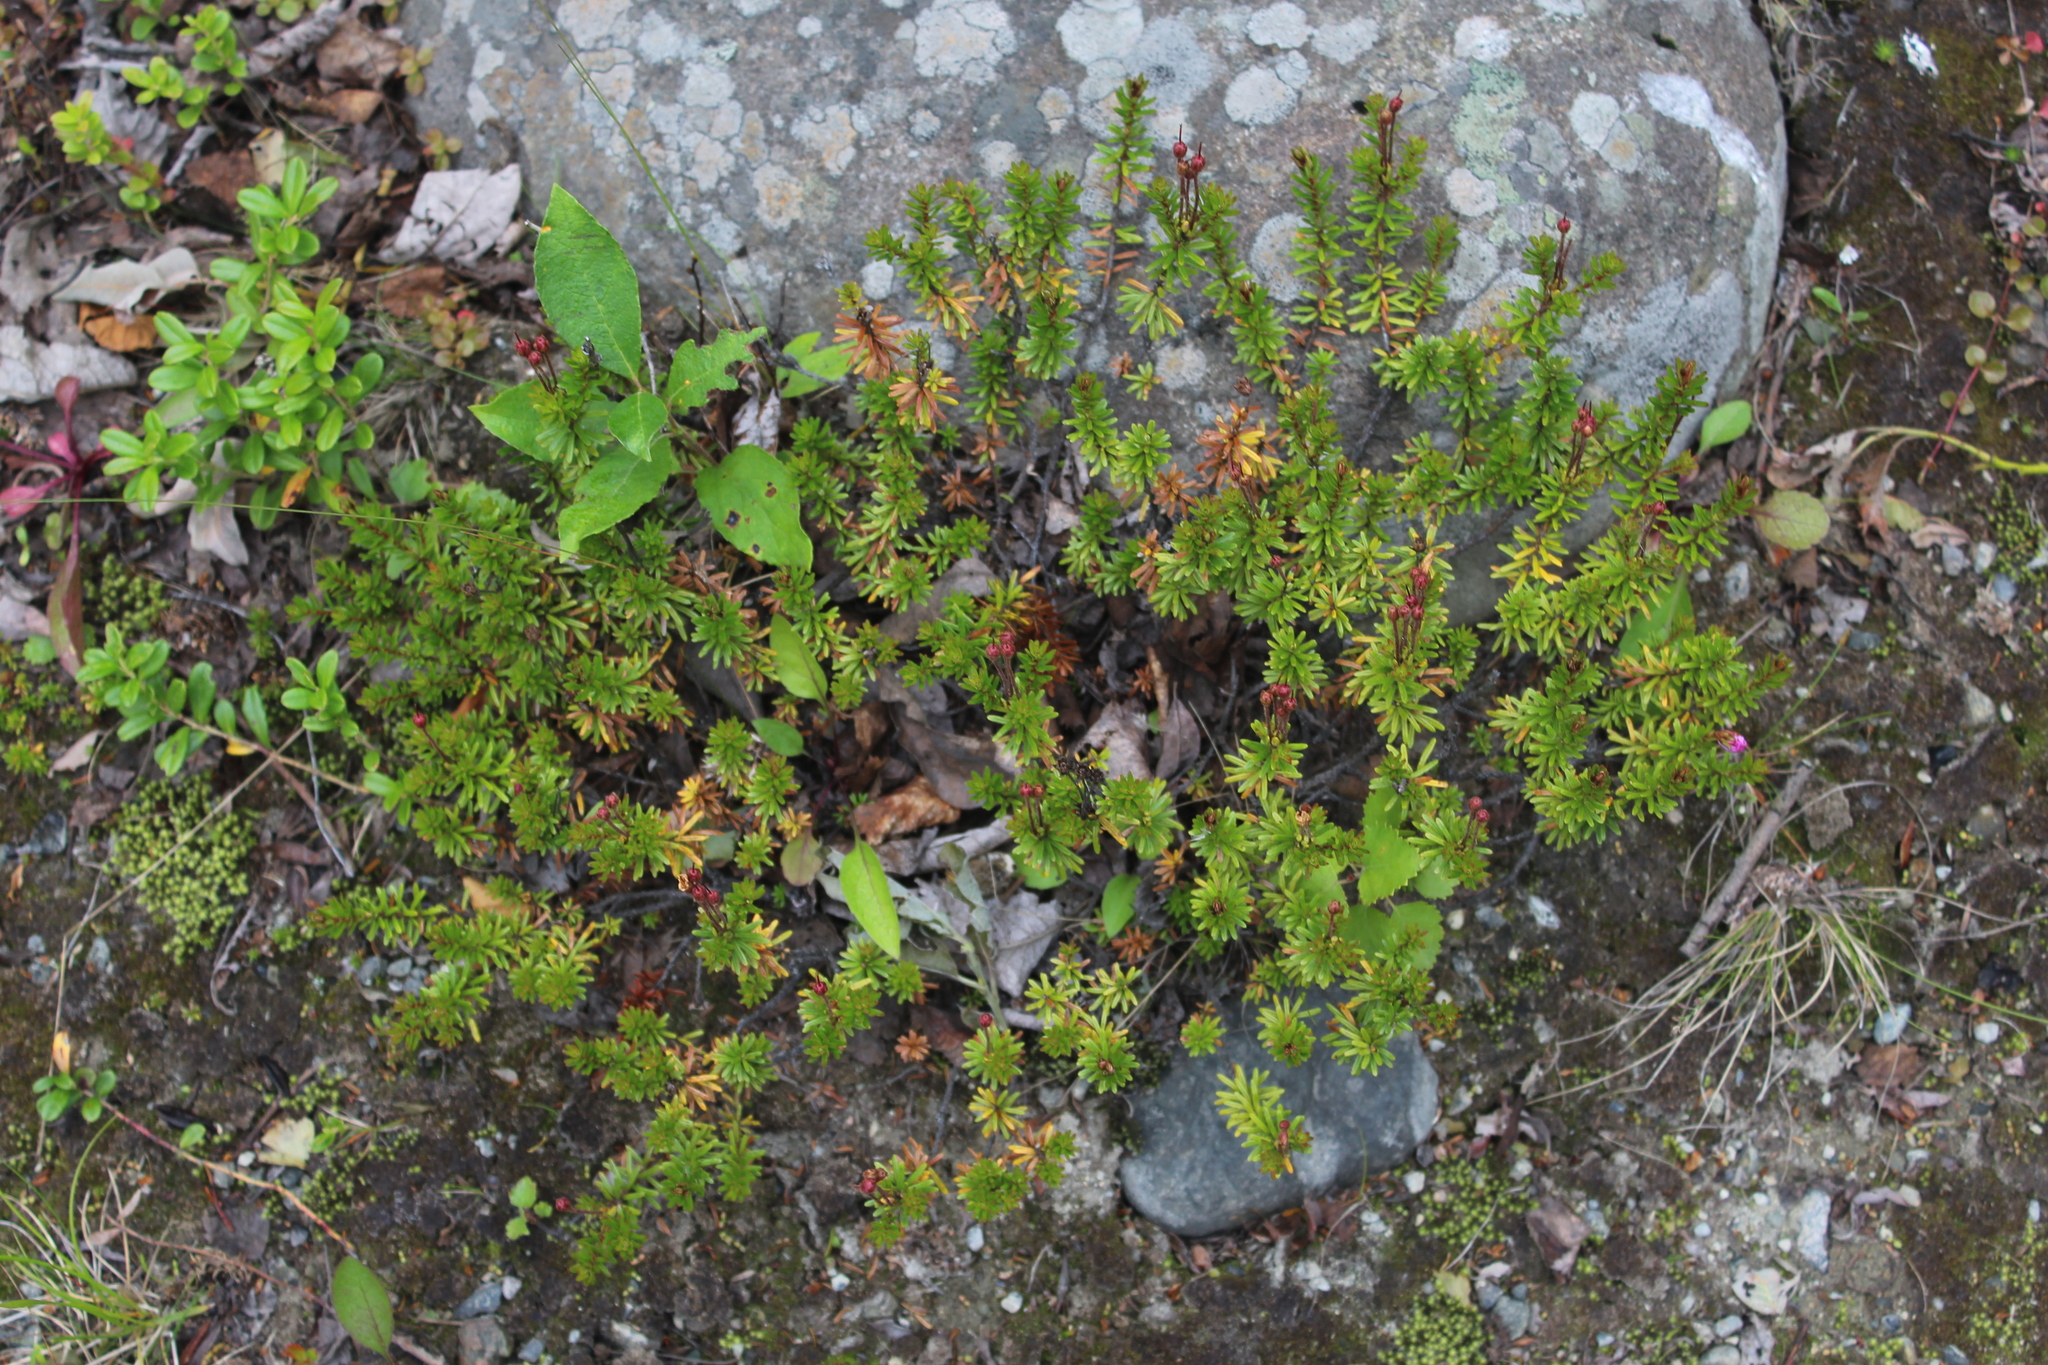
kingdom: Plantae
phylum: Tracheophyta
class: Magnoliopsida
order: Ericales
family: Ericaceae
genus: Phyllodoce
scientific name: Phyllodoce caerulea
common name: Blue heath
